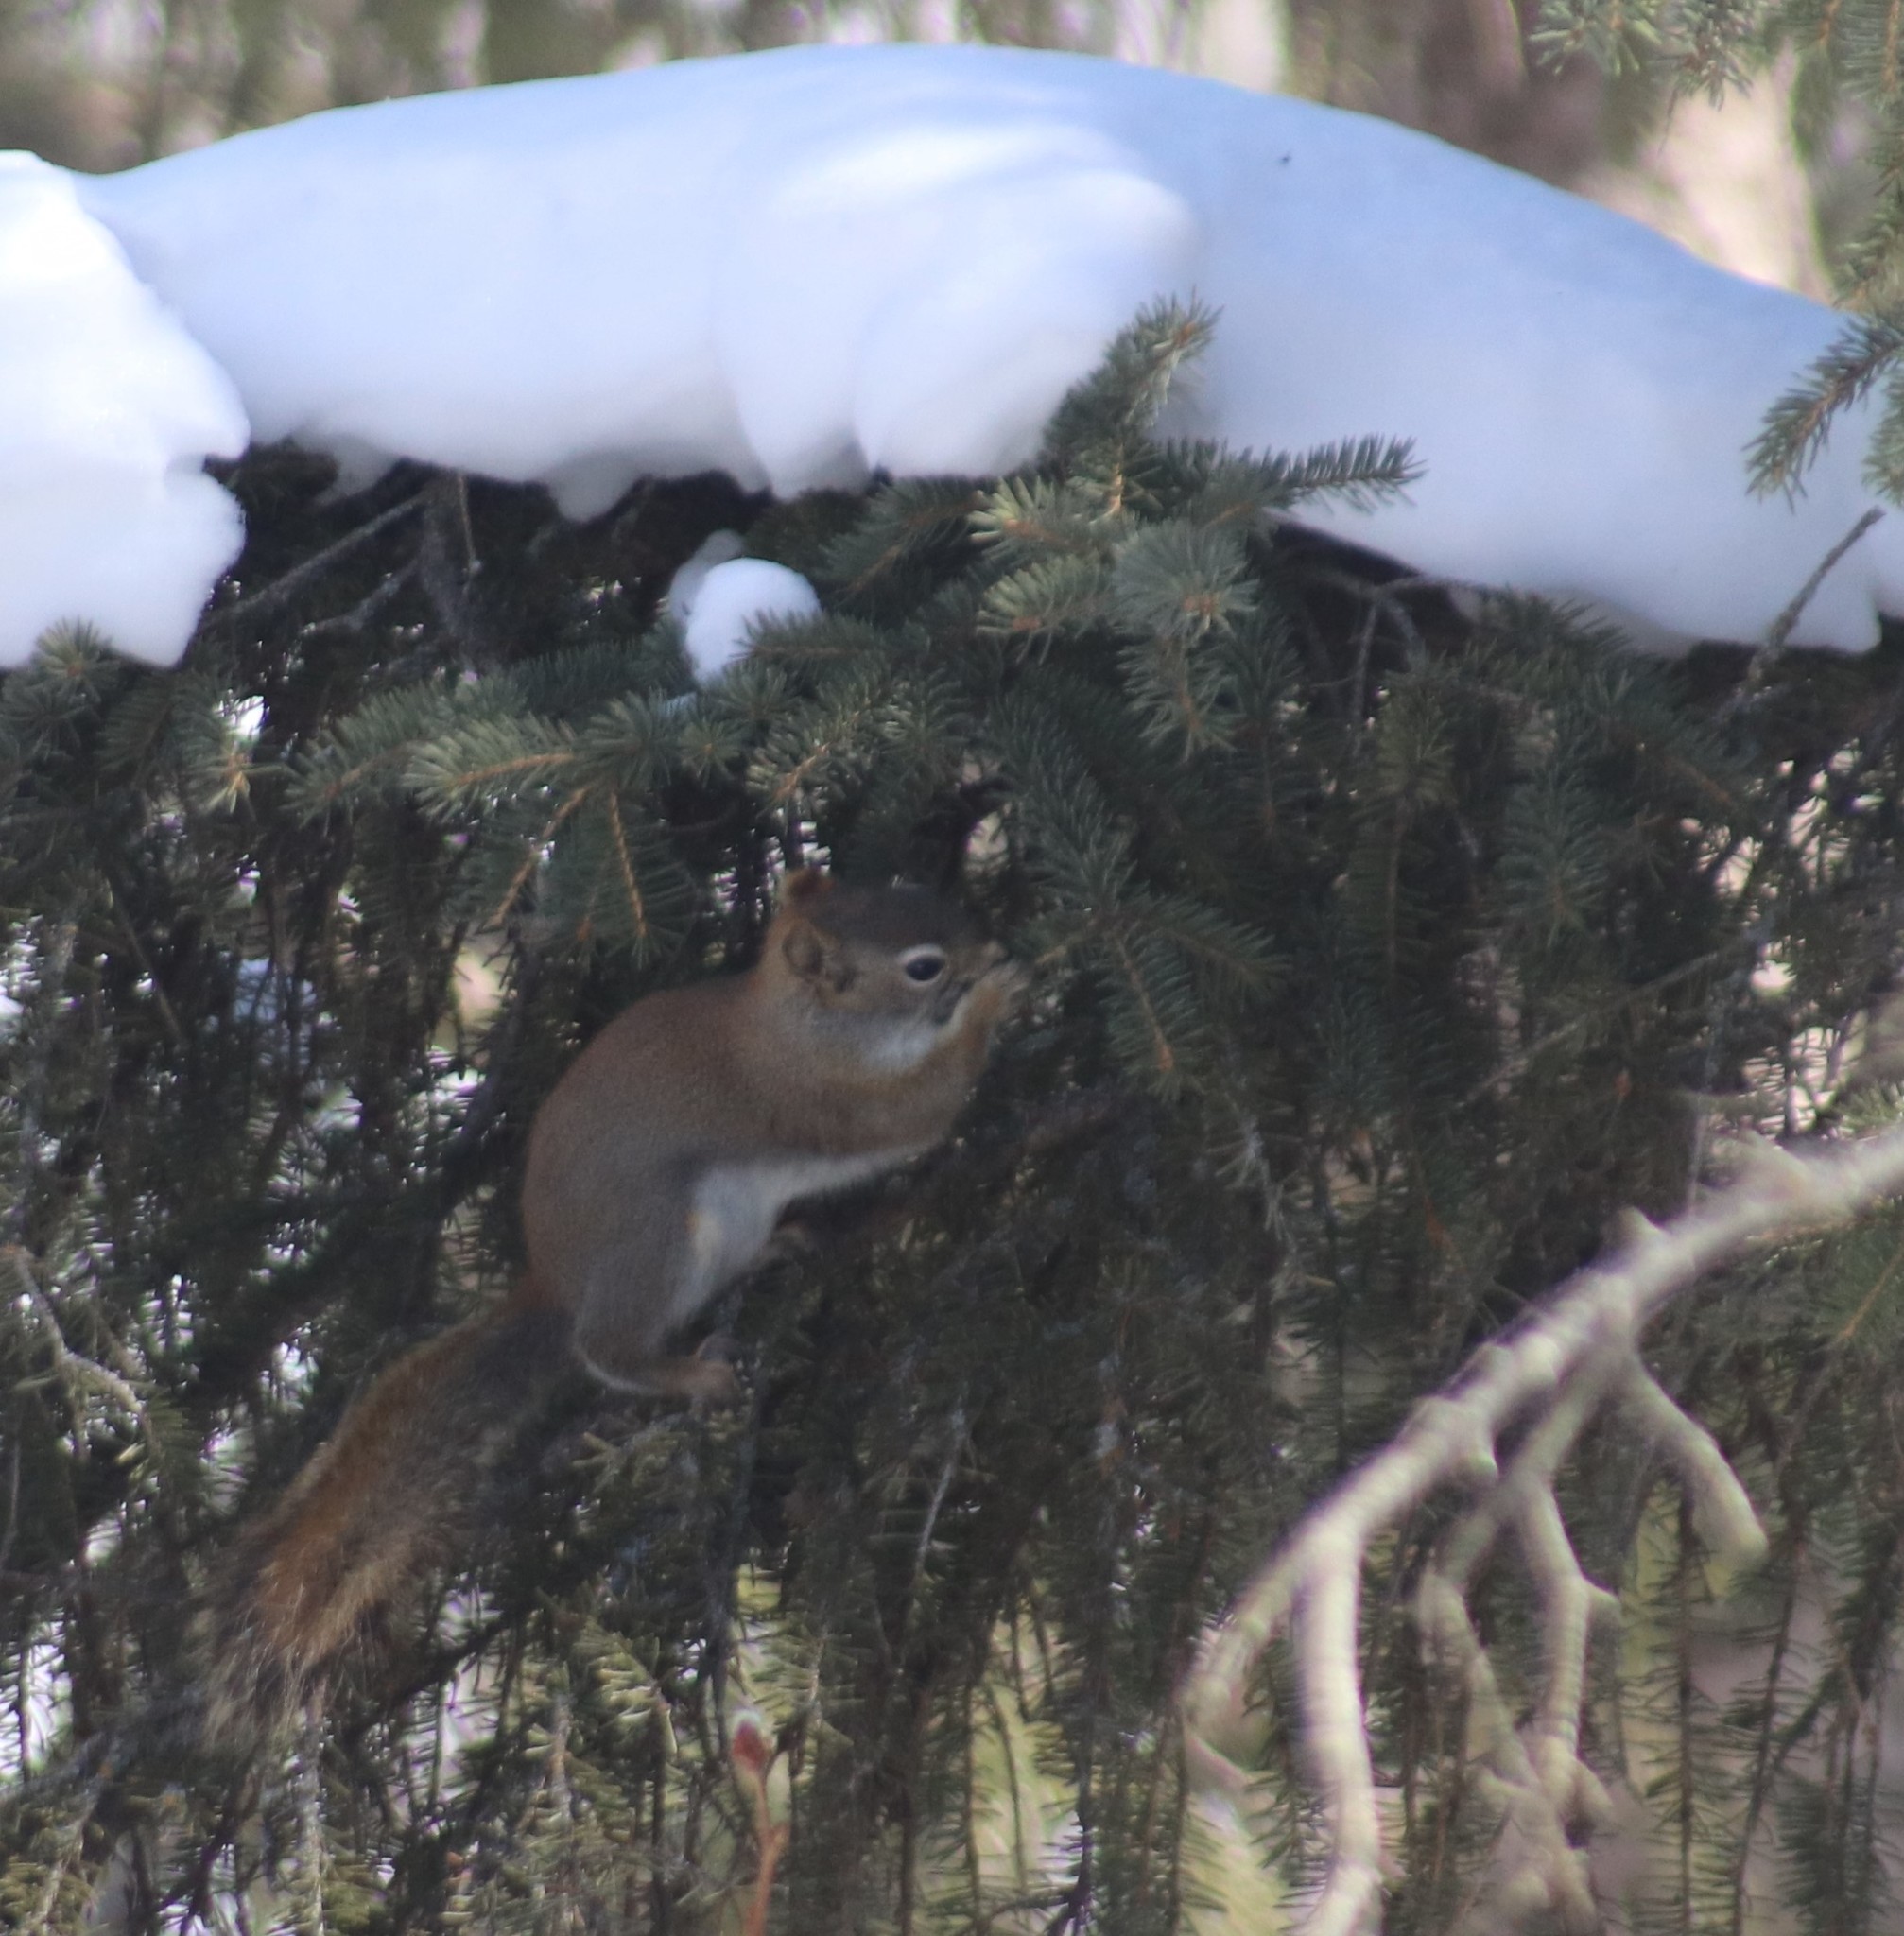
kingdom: Animalia
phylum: Chordata
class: Mammalia
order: Rodentia
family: Sciuridae
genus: Tamiasciurus
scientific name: Tamiasciurus hudsonicus
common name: Red squirrel
